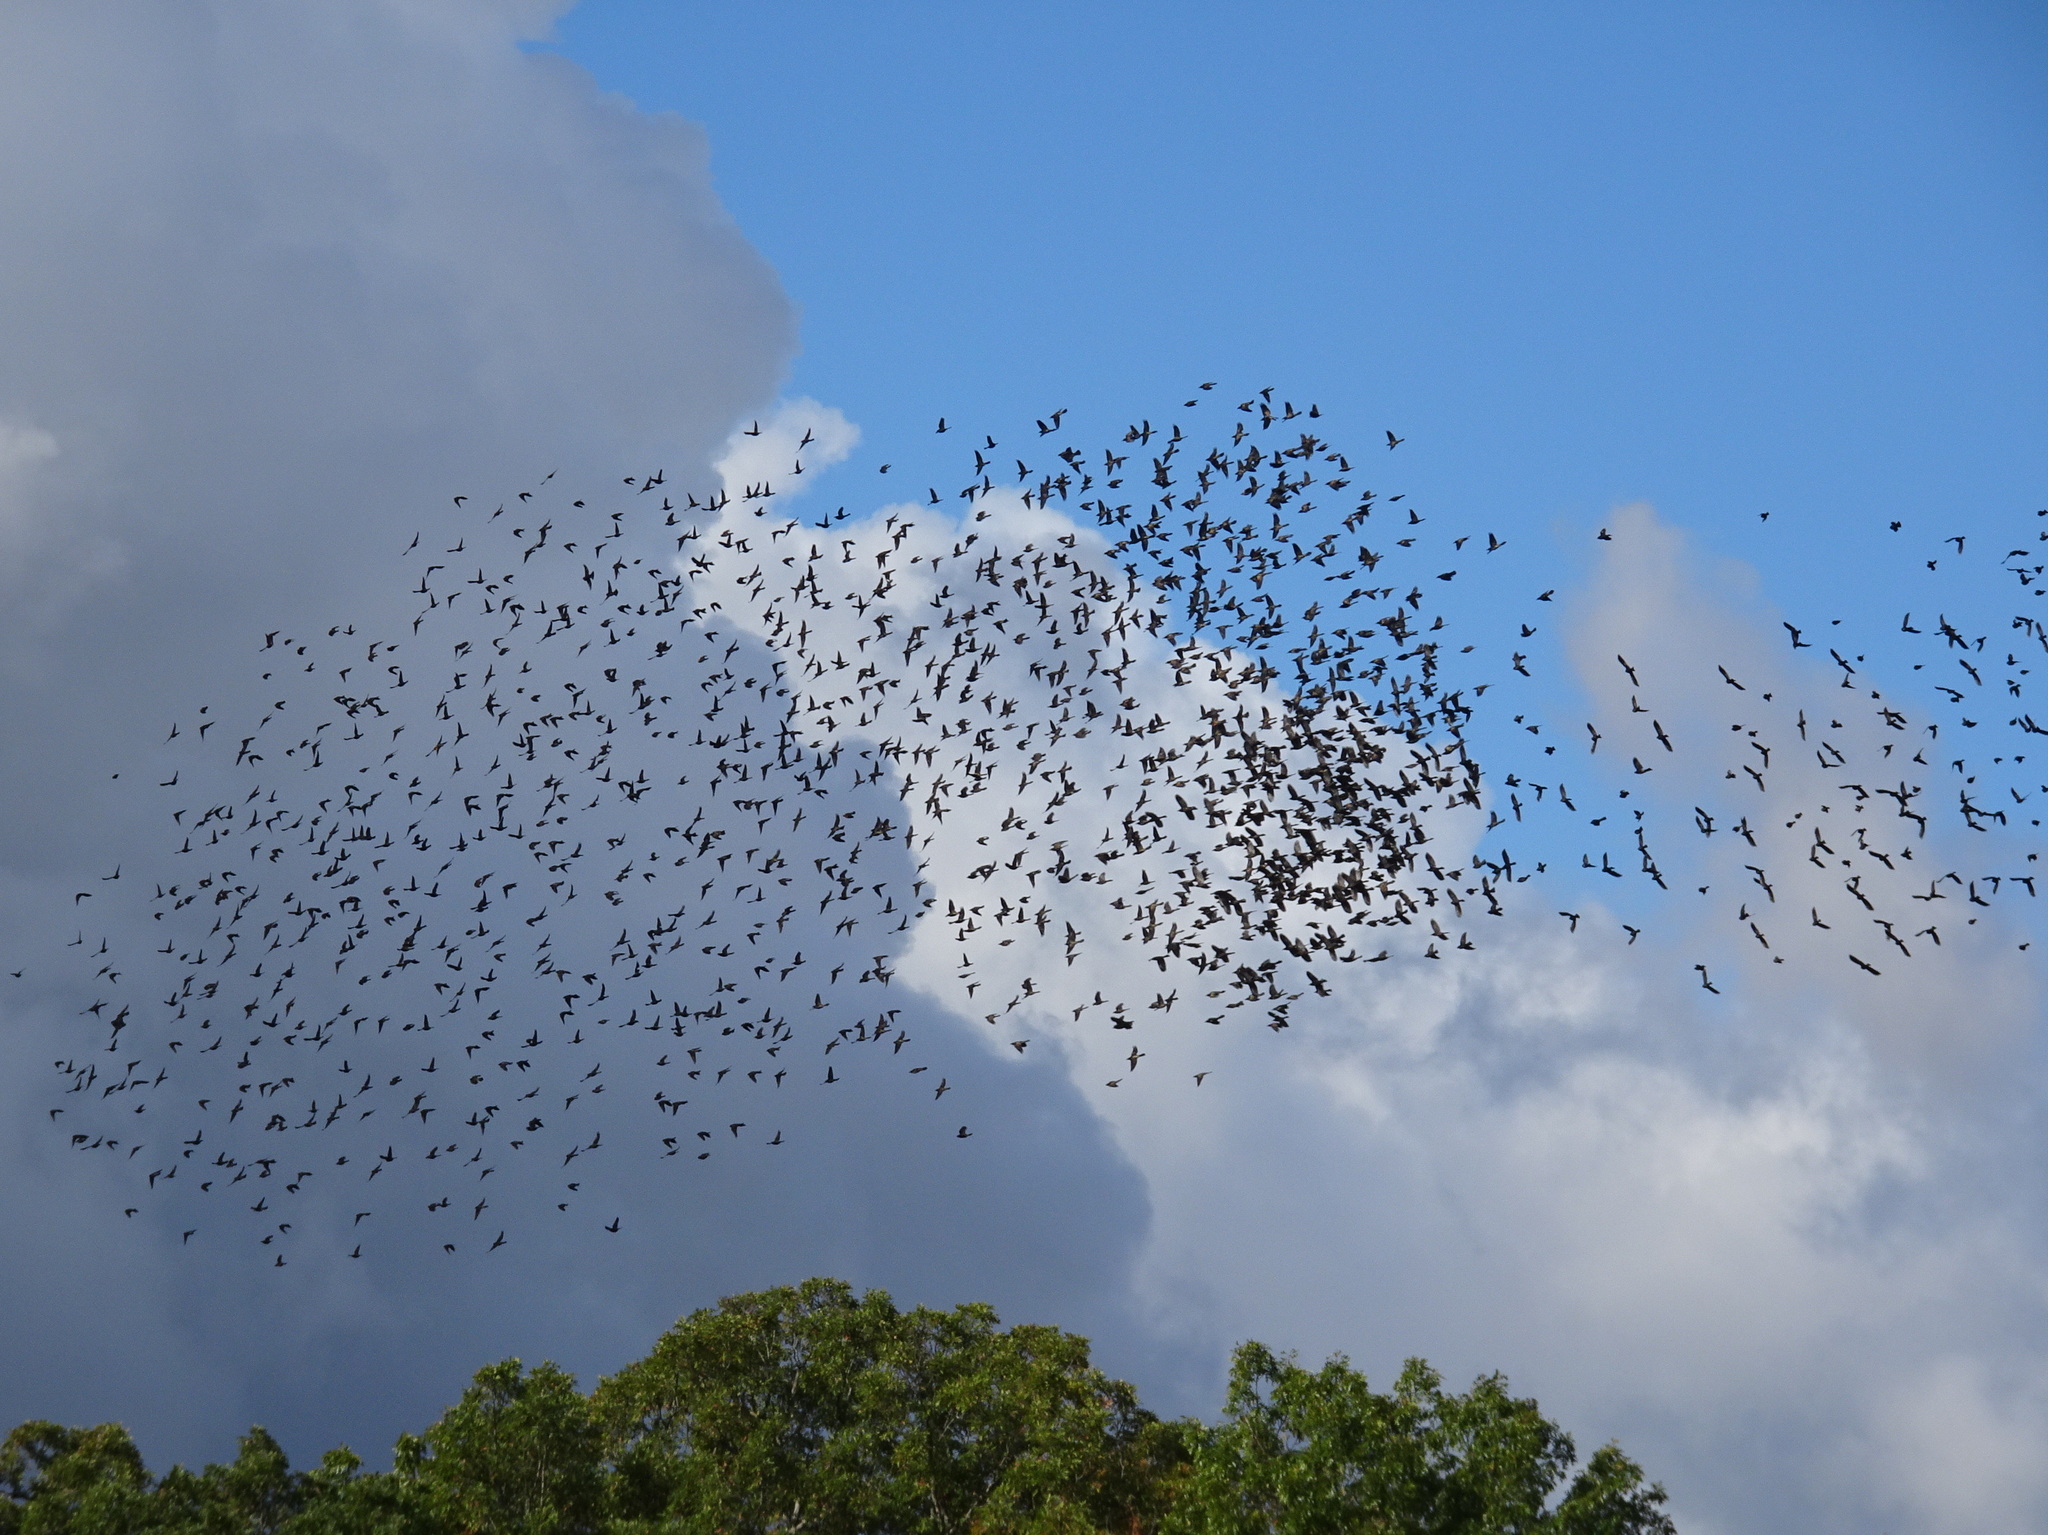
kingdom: Animalia
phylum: Chordata
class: Aves
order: Passeriformes
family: Icteridae
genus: Quiscalus
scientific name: Quiscalus quiscula
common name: Common grackle
